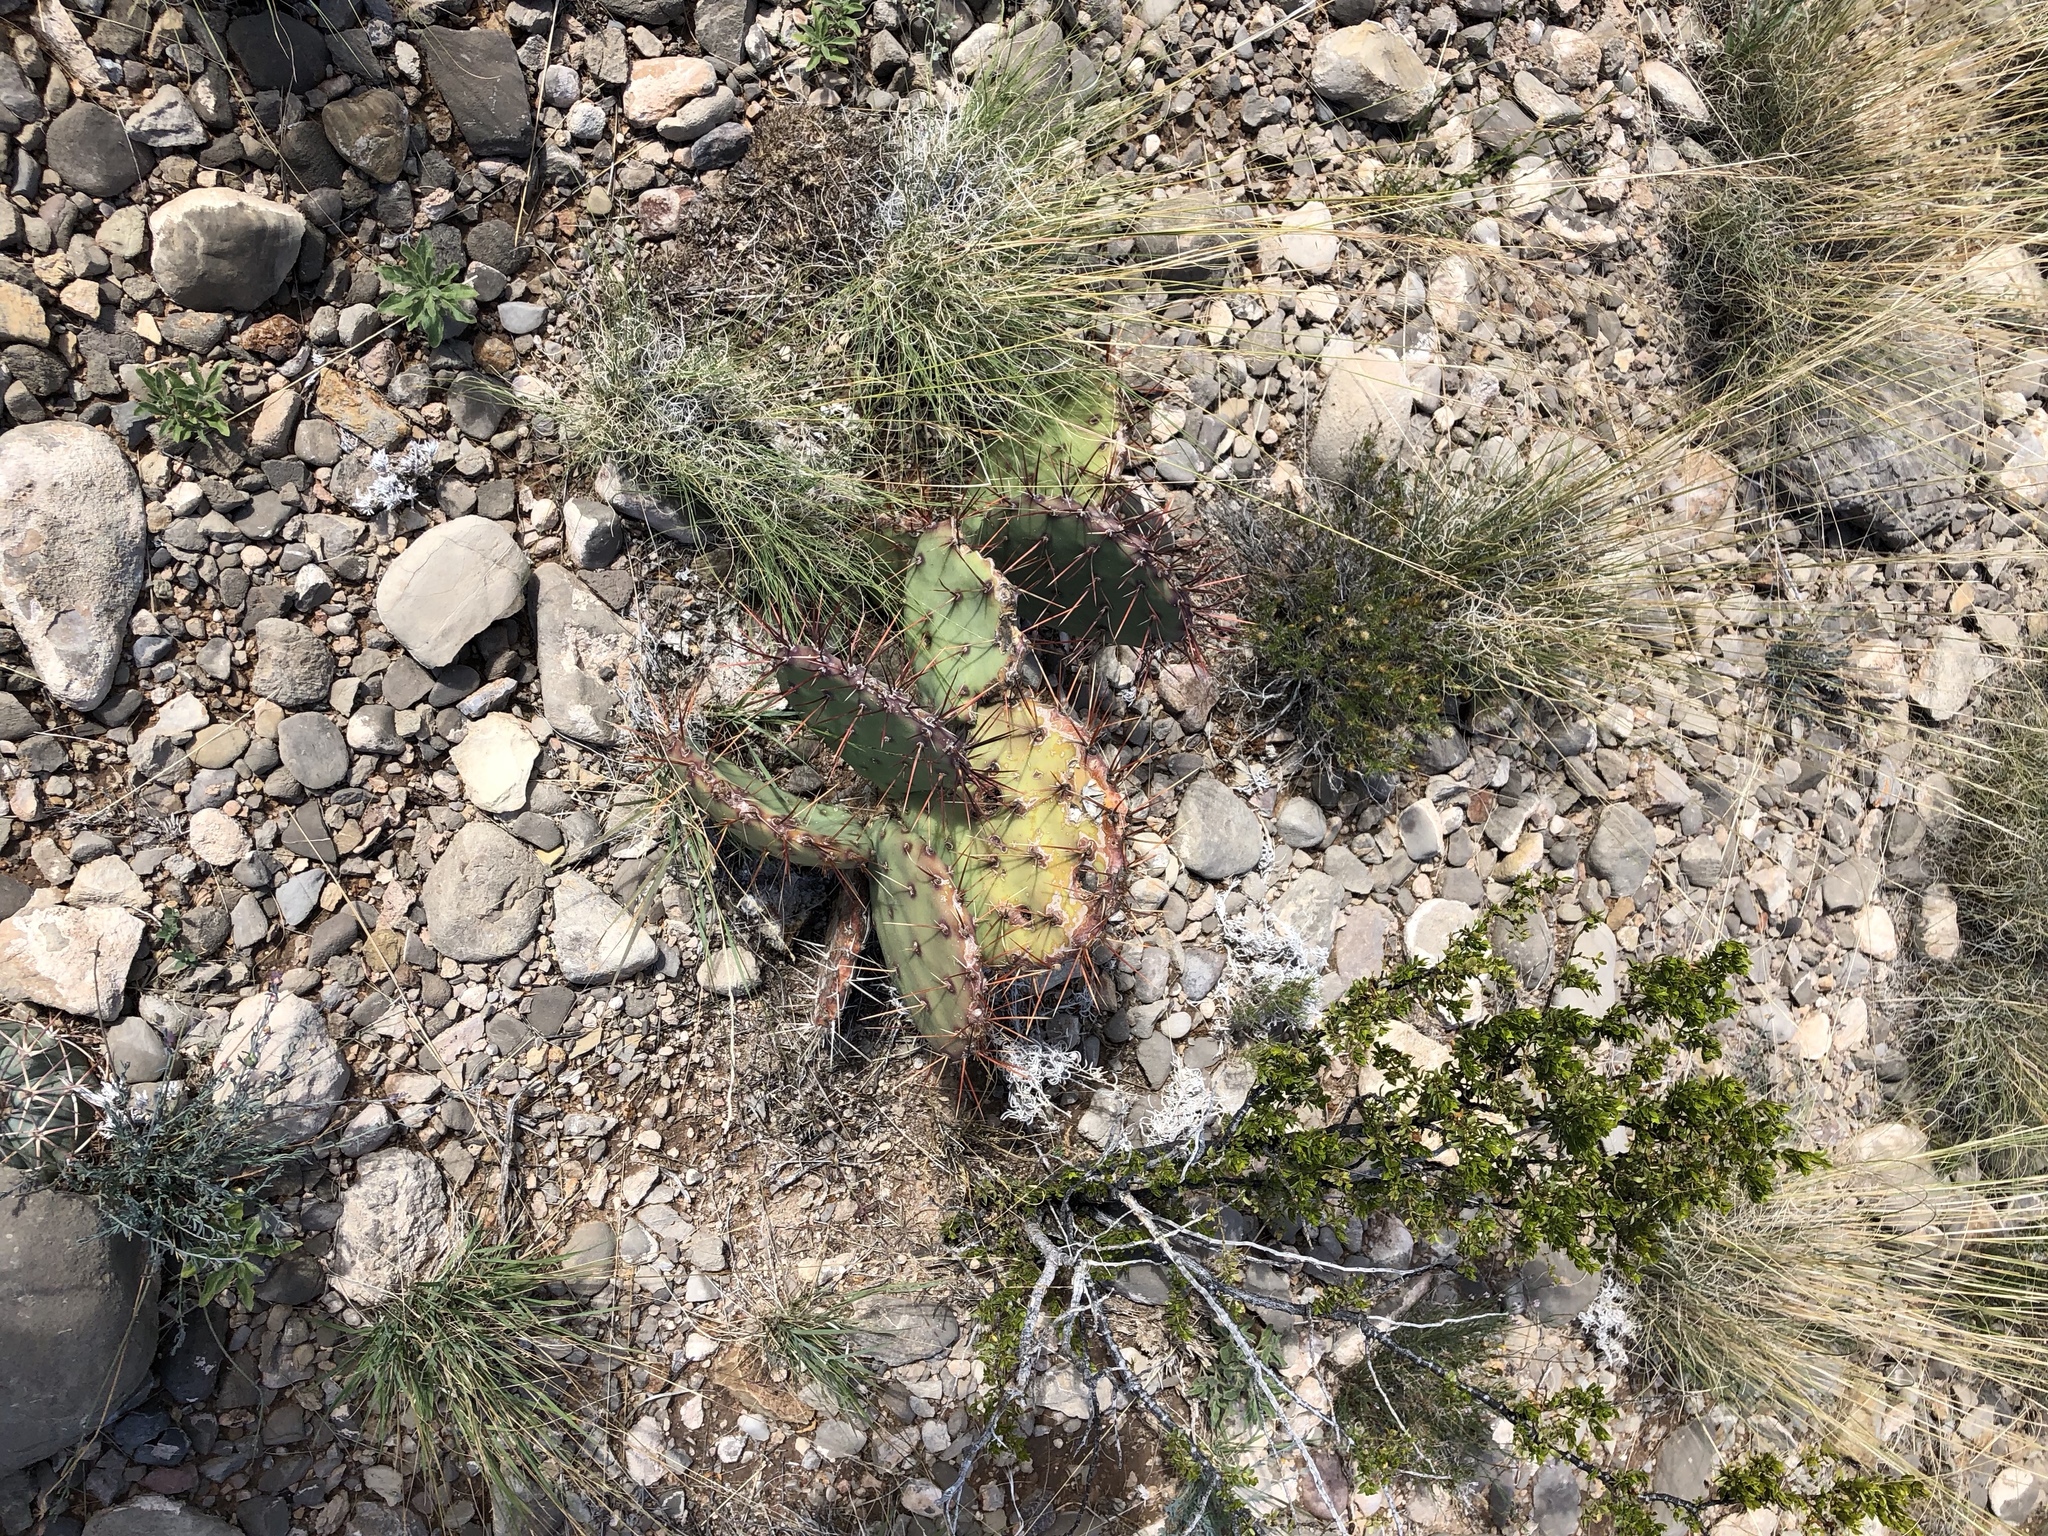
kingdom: Plantae
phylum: Tracheophyta
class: Magnoliopsida
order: Caryophyllales
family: Cactaceae
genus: Opuntia
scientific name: Opuntia phaeacantha
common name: New mexico prickly-pear
